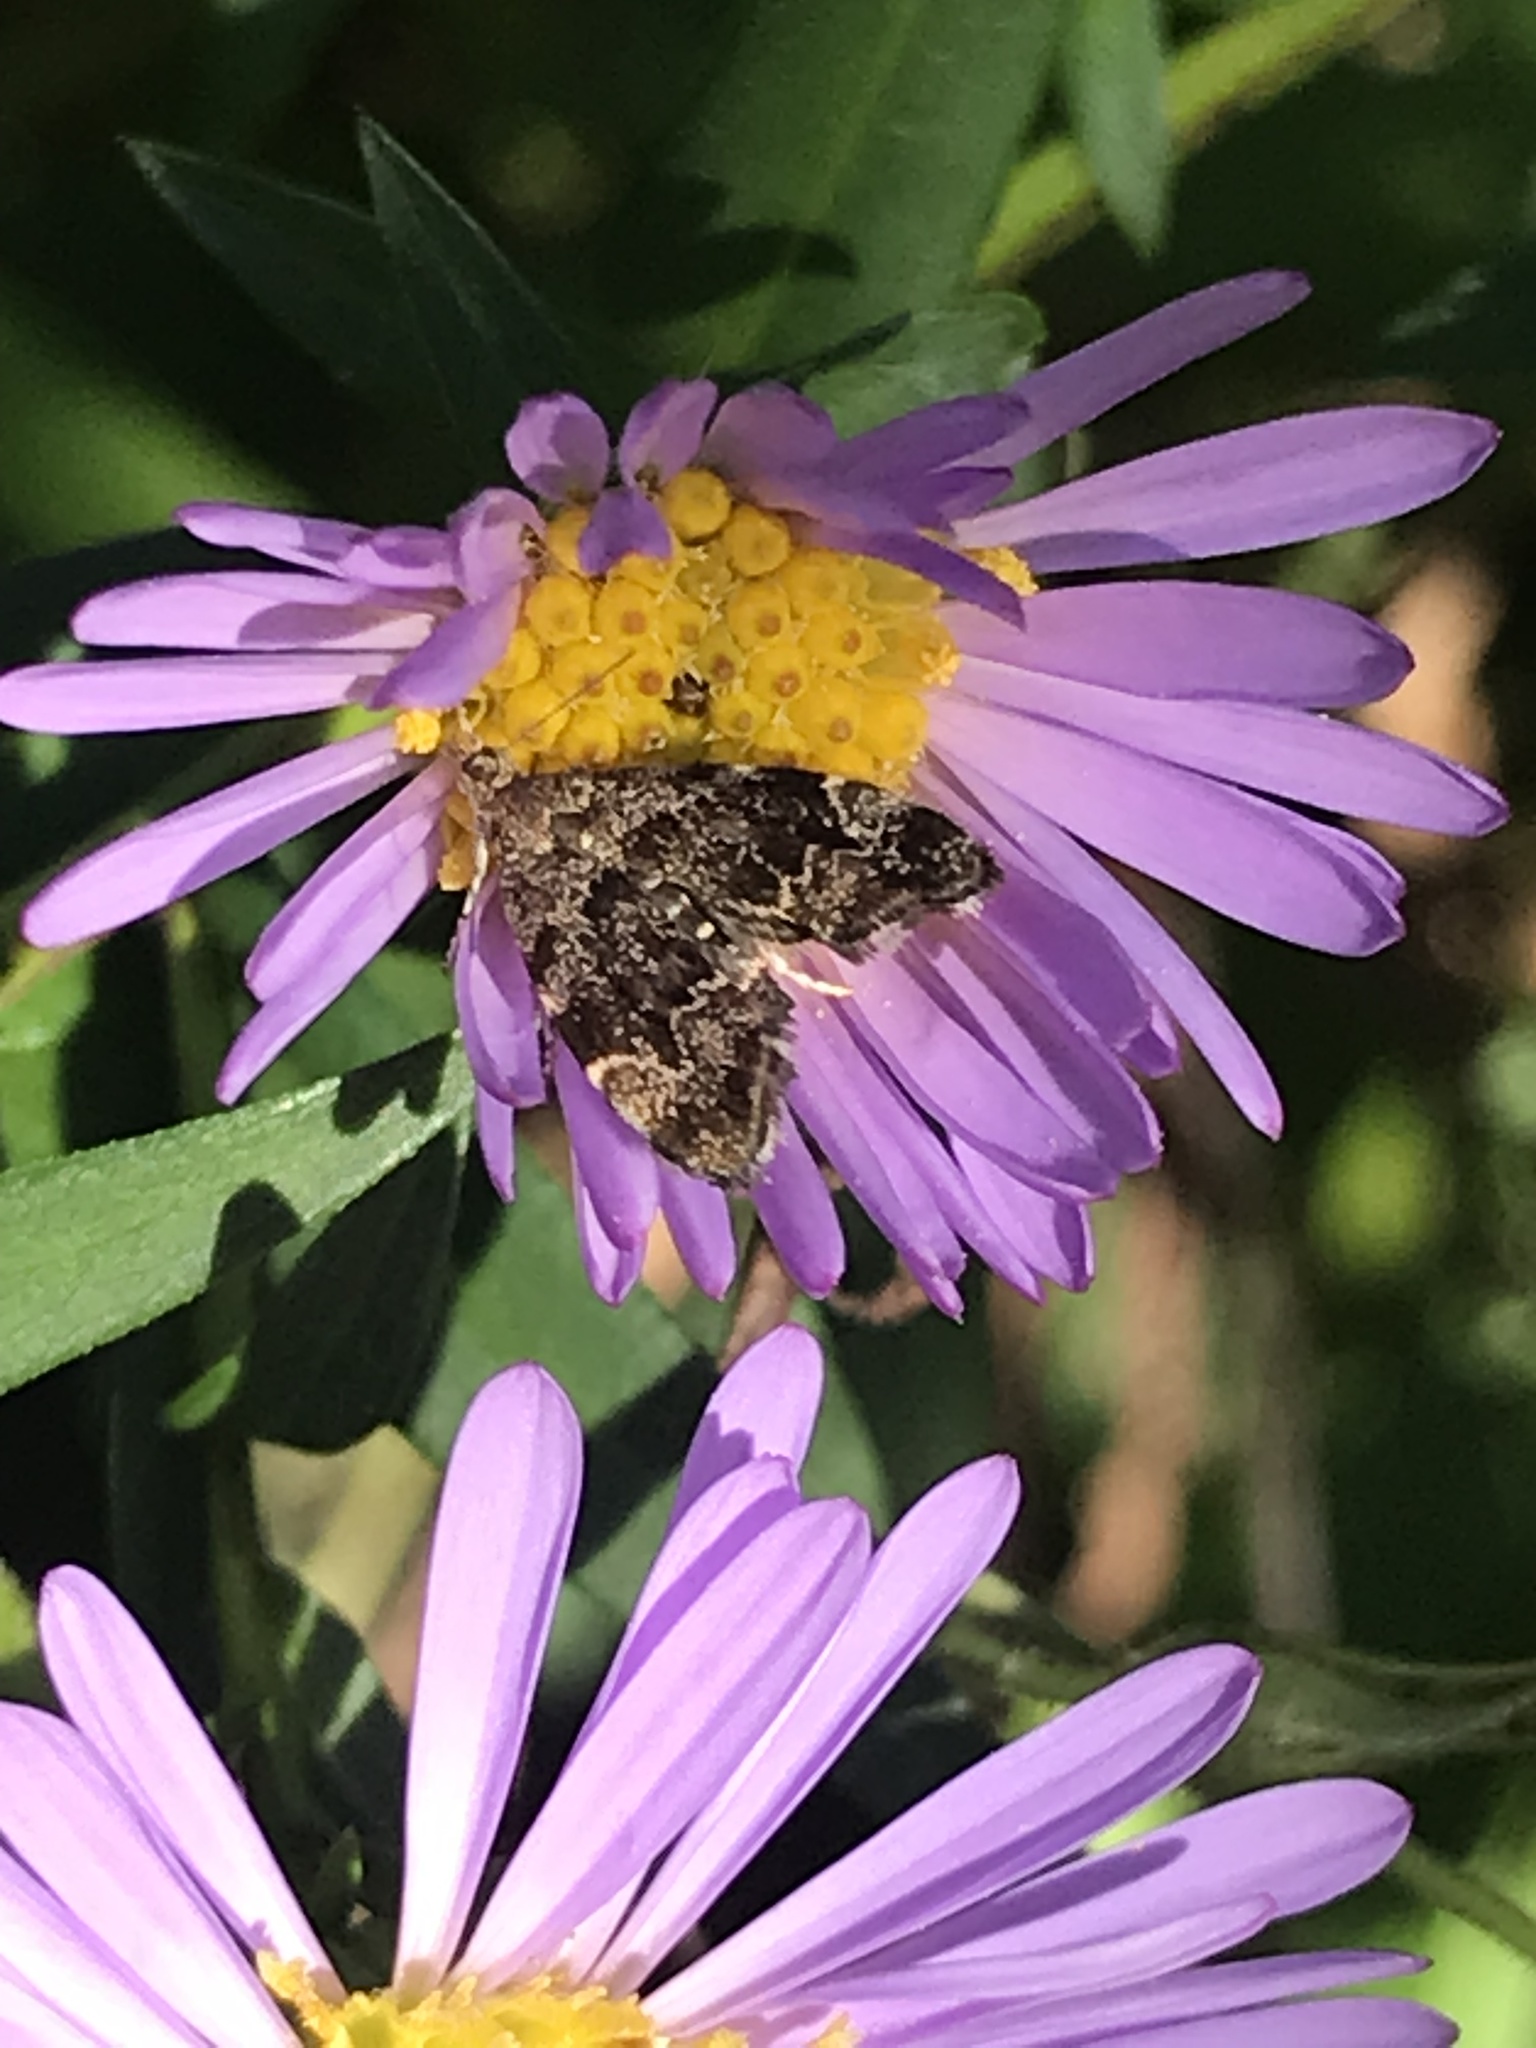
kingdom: Animalia
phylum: Arthropoda
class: Insecta
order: Lepidoptera
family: Choreutidae
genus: Anthophila
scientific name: Anthophila fabriciana
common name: Nettle-tap
